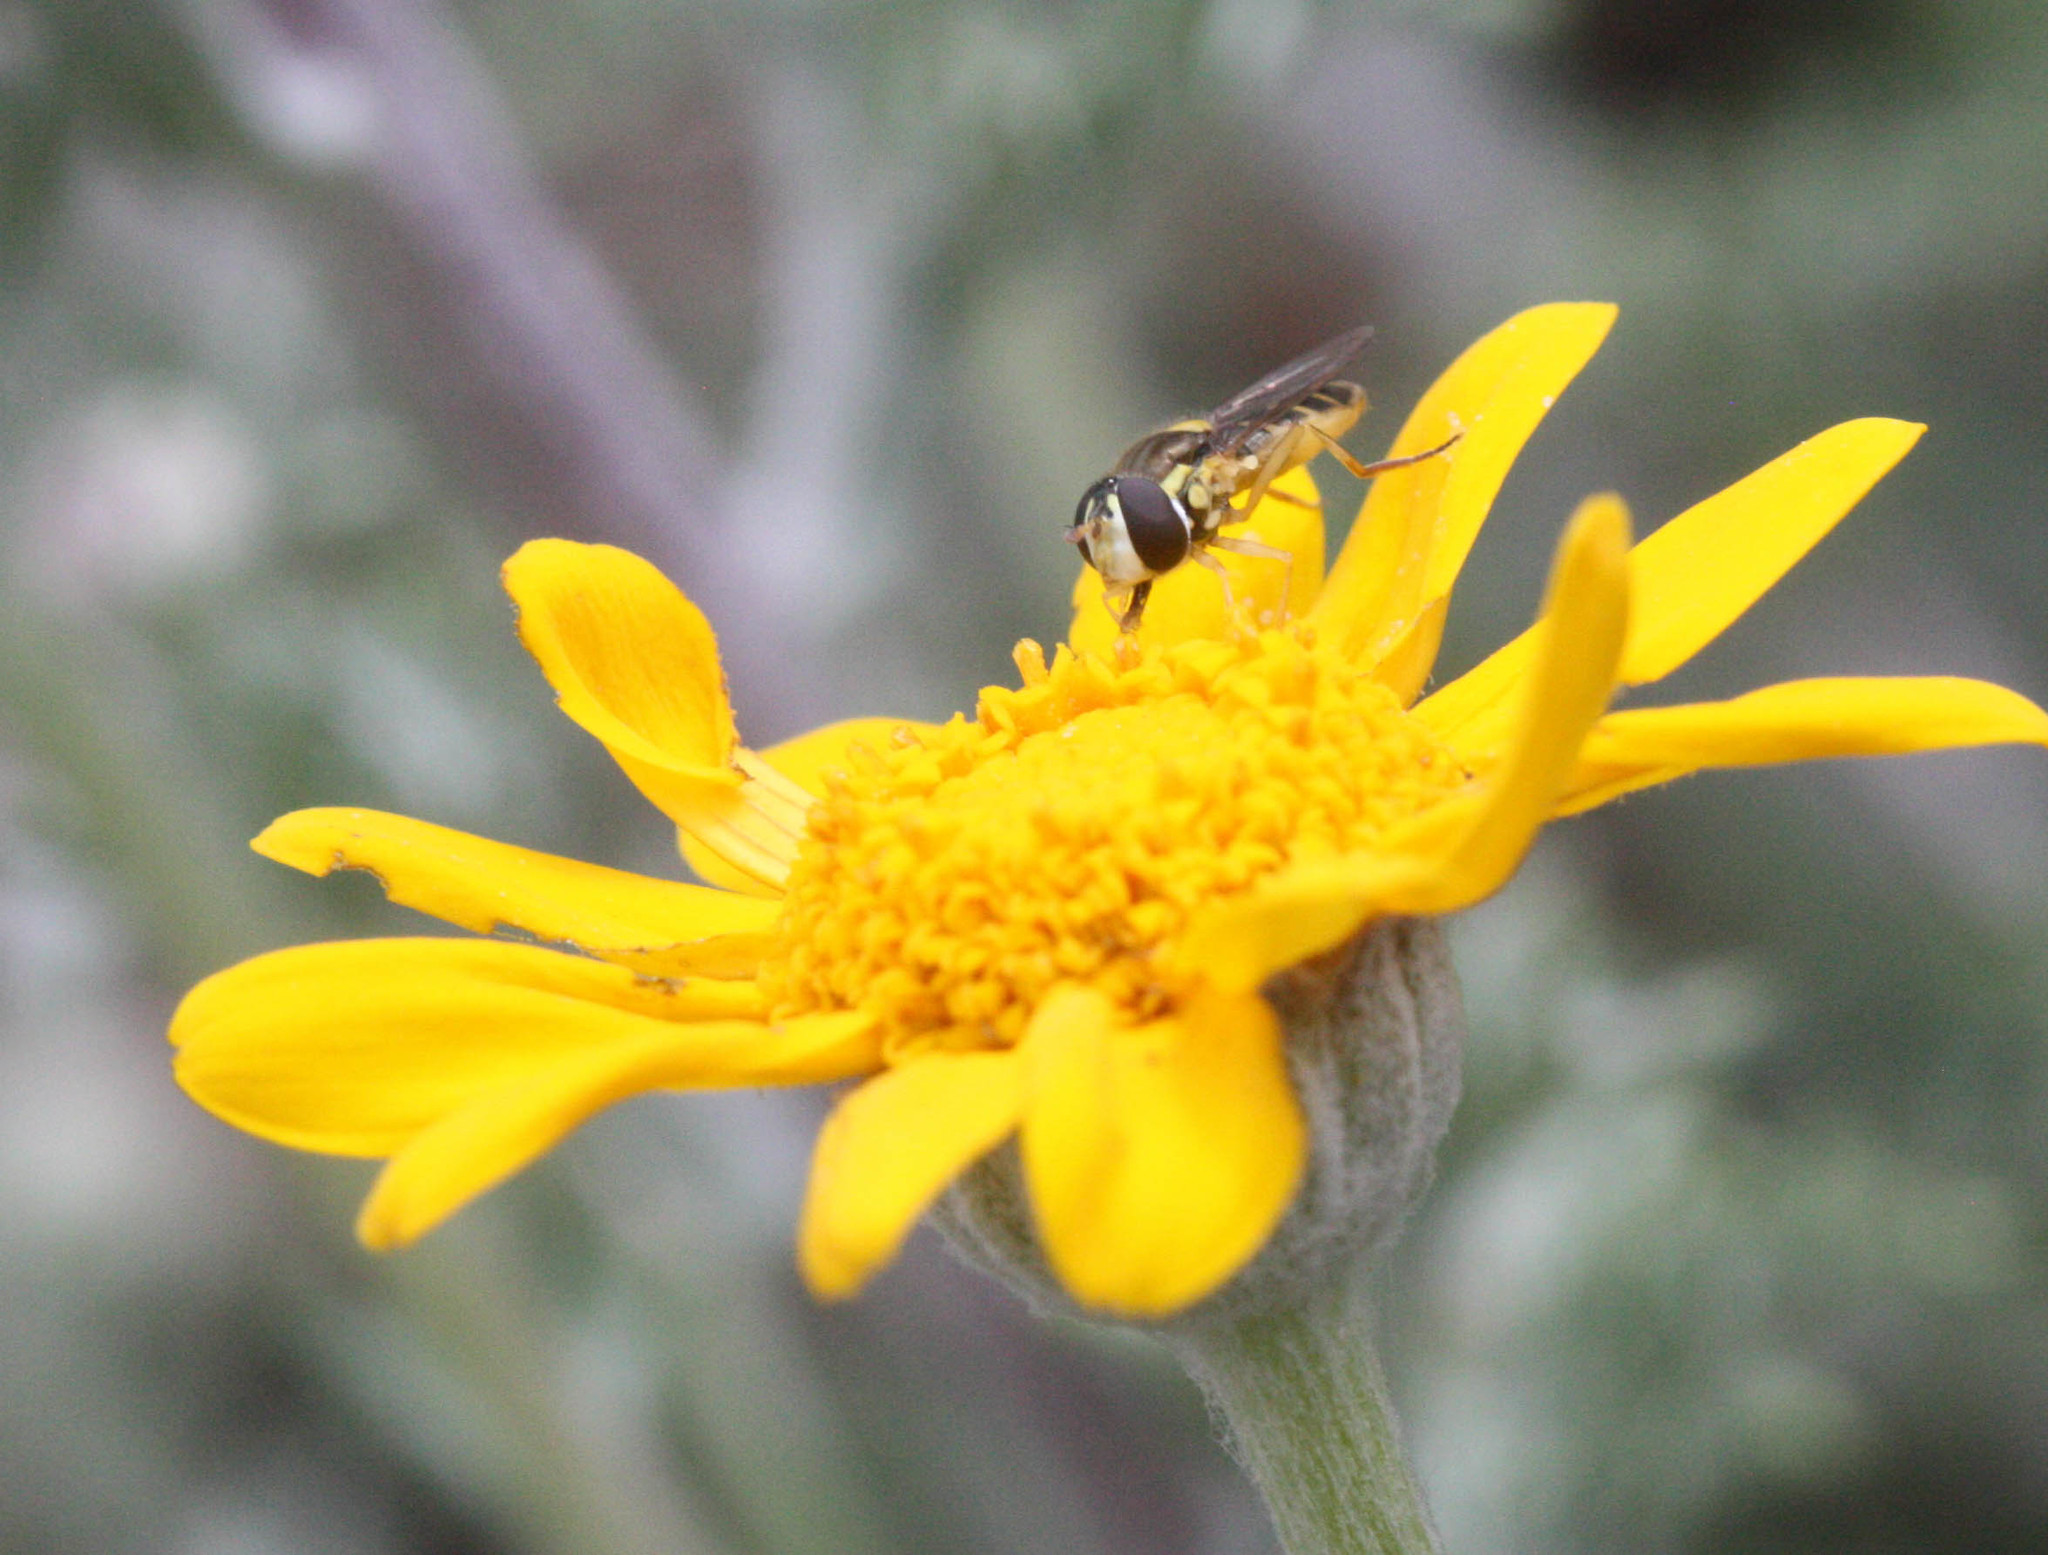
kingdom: Animalia
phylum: Arthropoda
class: Insecta
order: Diptera
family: Syrphidae
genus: Sphaerophoria
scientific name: Sphaerophoria sulphuripes
